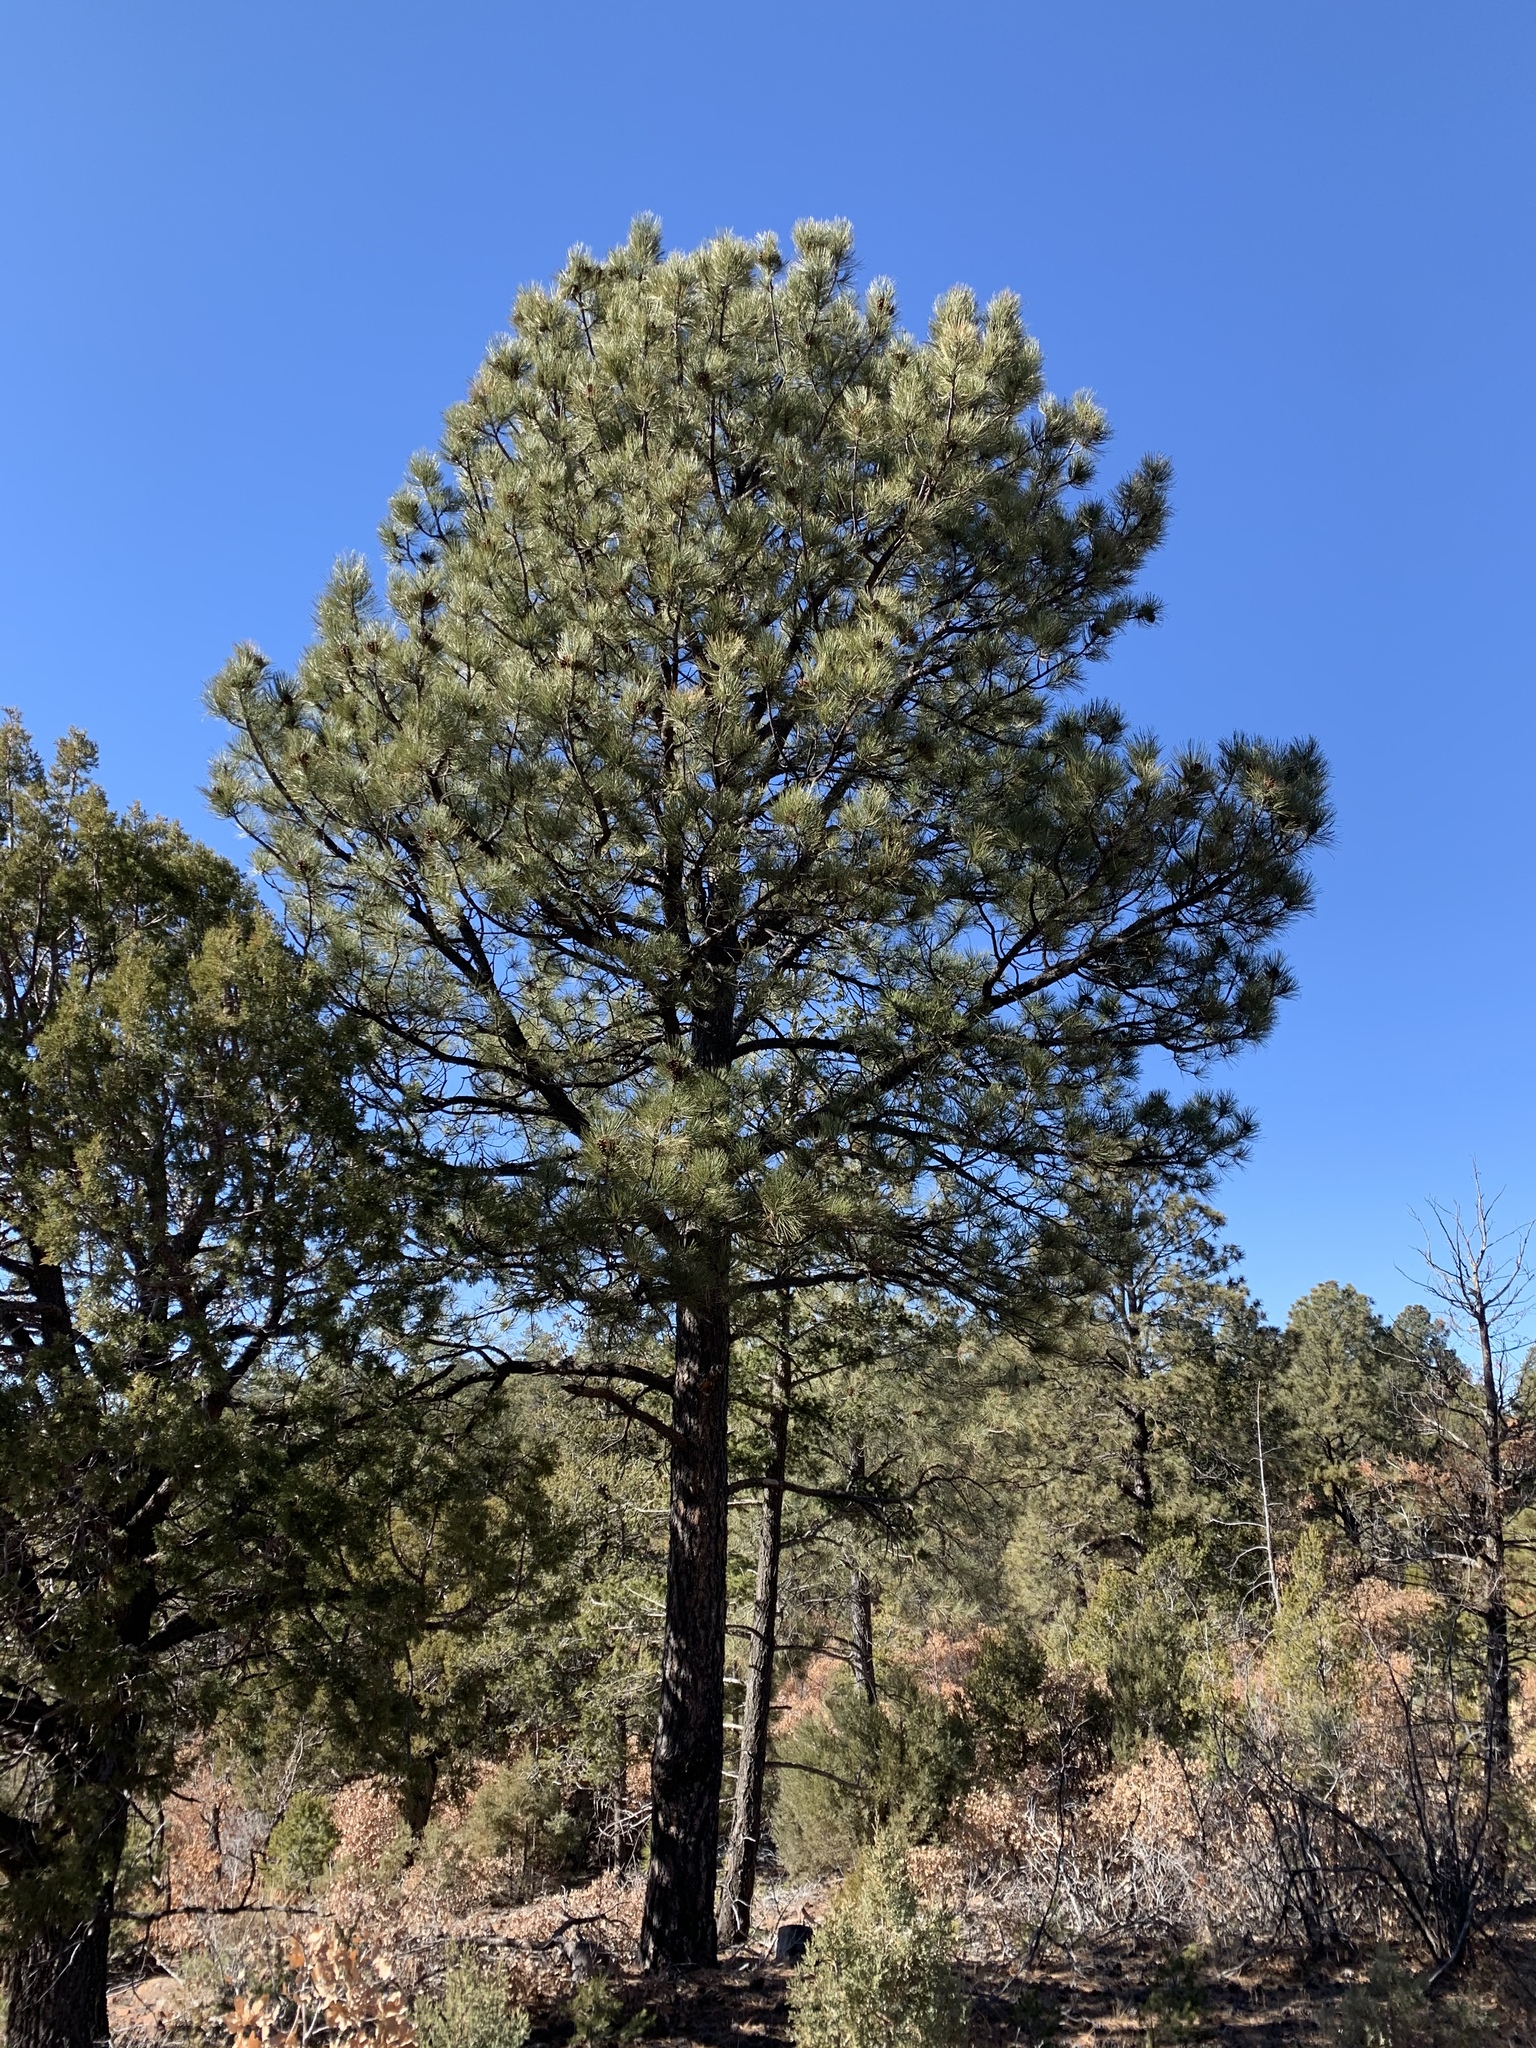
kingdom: Plantae
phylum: Tracheophyta
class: Pinopsida
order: Pinales
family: Pinaceae
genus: Pinus
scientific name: Pinus ponderosa
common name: Western yellow-pine
